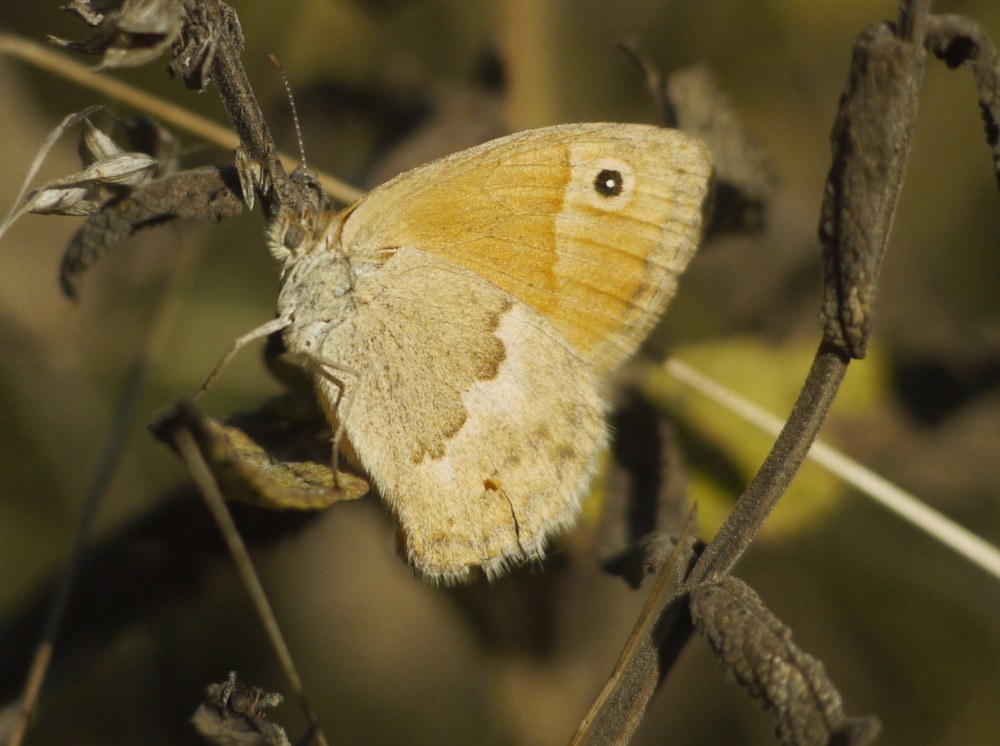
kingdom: Animalia
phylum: Arthropoda
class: Insecta
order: Lepidoptera
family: Nymphalidae
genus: Coenonympha
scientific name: Coenonympha pamphilus
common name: Small heath
